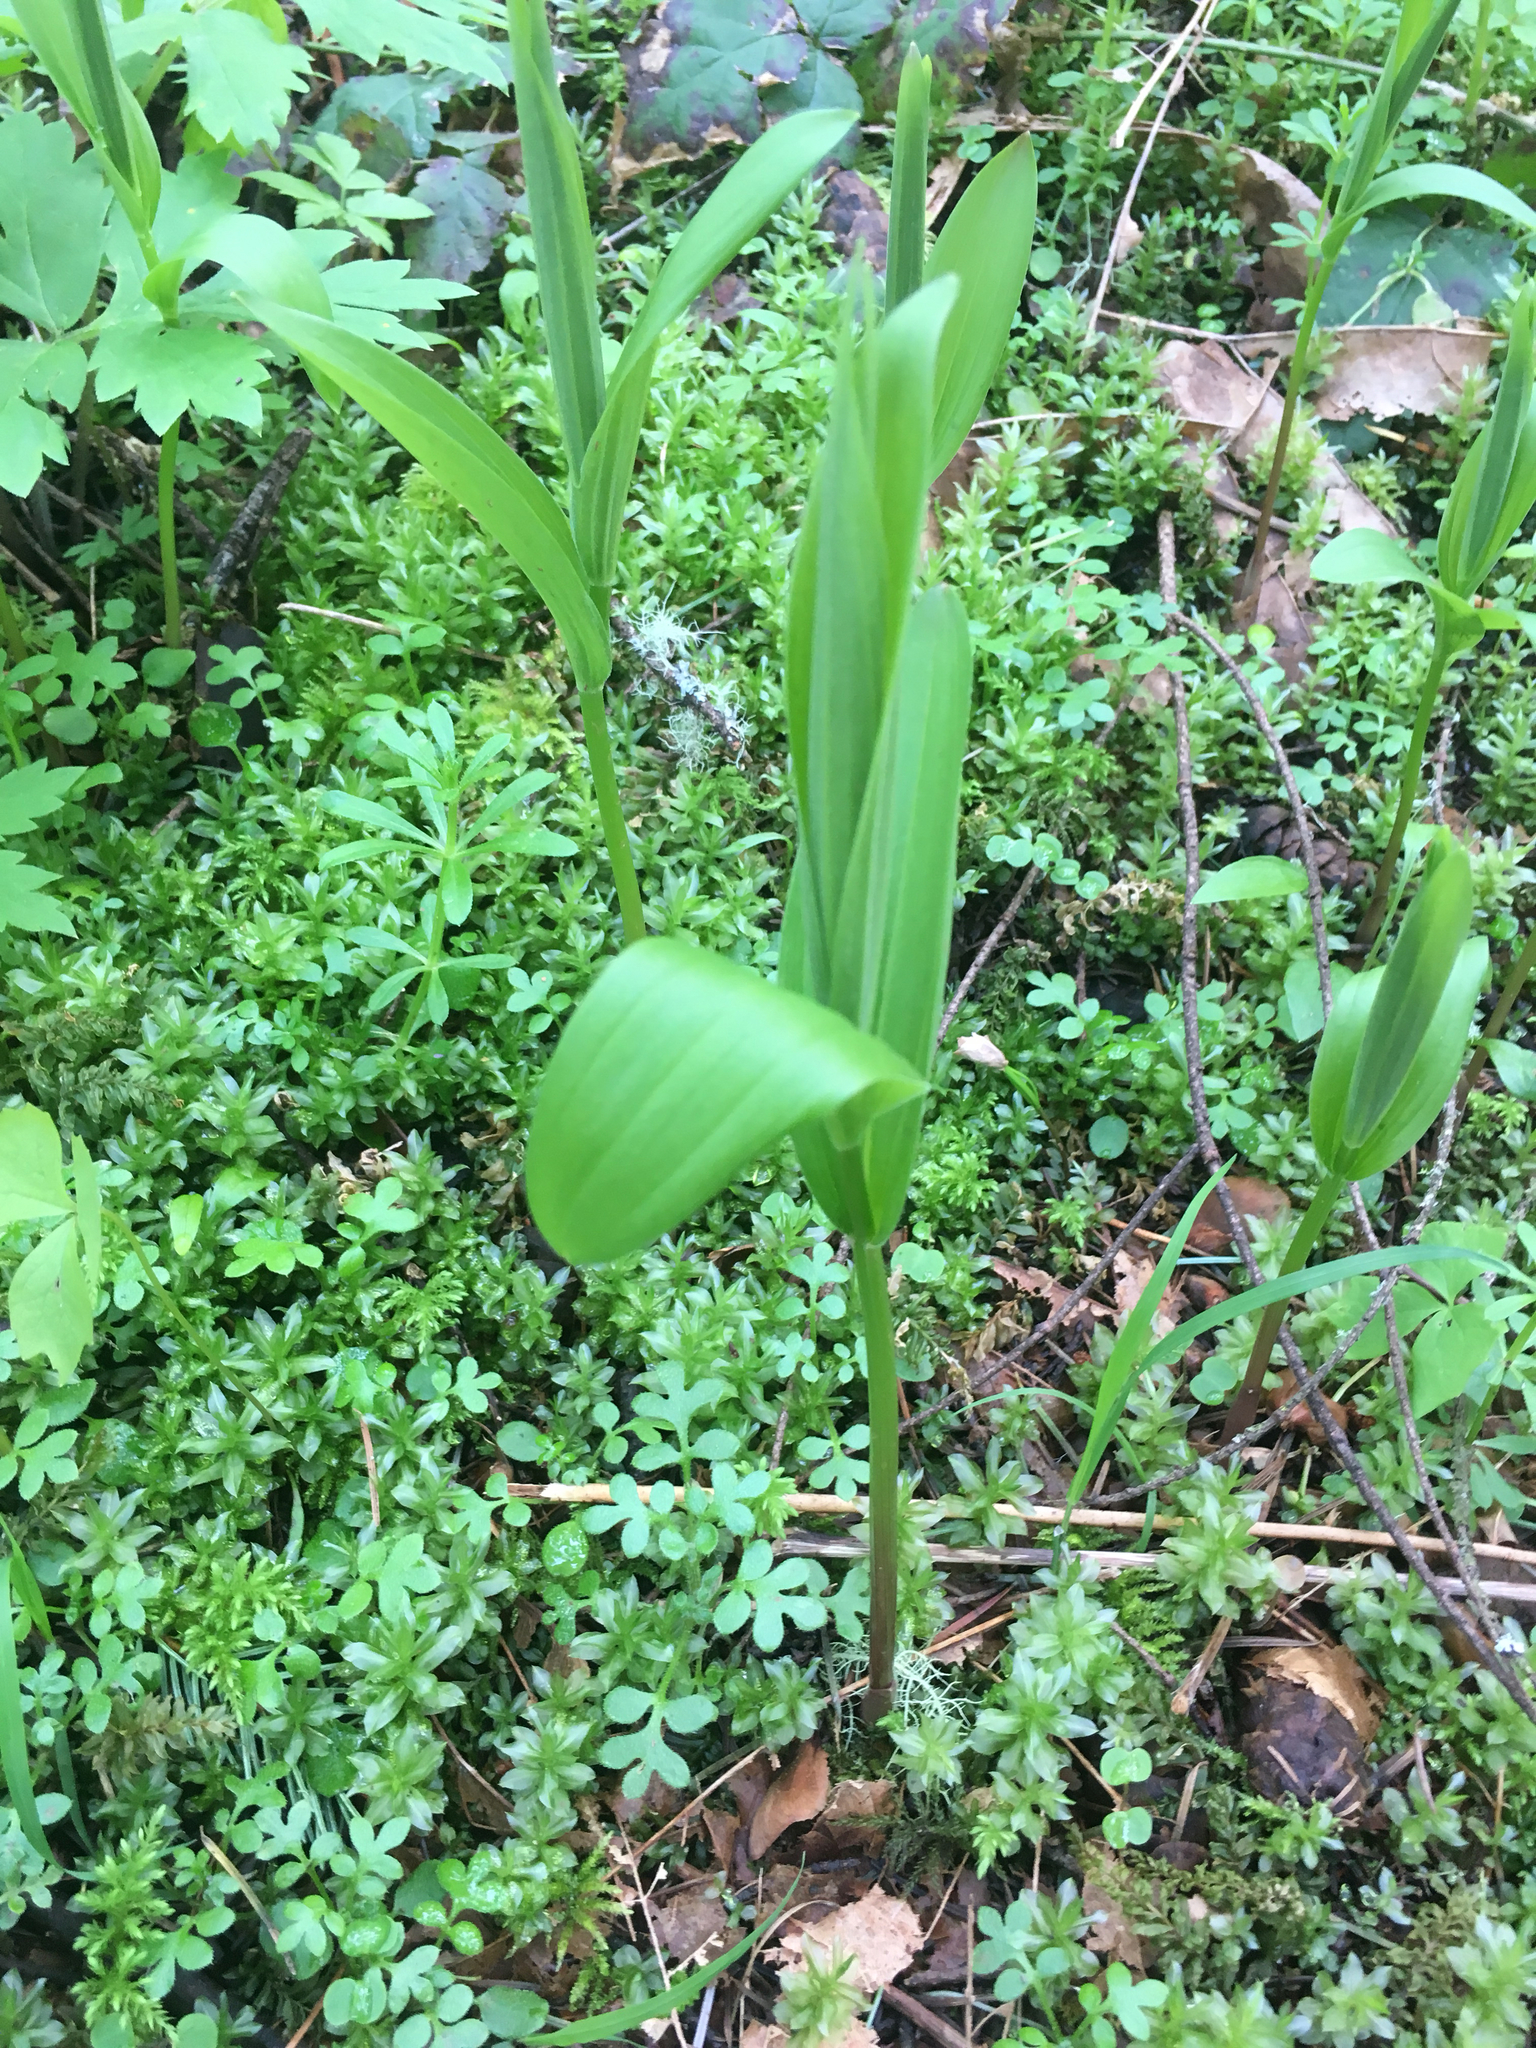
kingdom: Plantae
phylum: Tracheophyta
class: Liliopsida
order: Asparagales
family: Asparagaceae
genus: Maianthemum
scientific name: Maianthemum stellatum
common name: Little false solomon's seal
